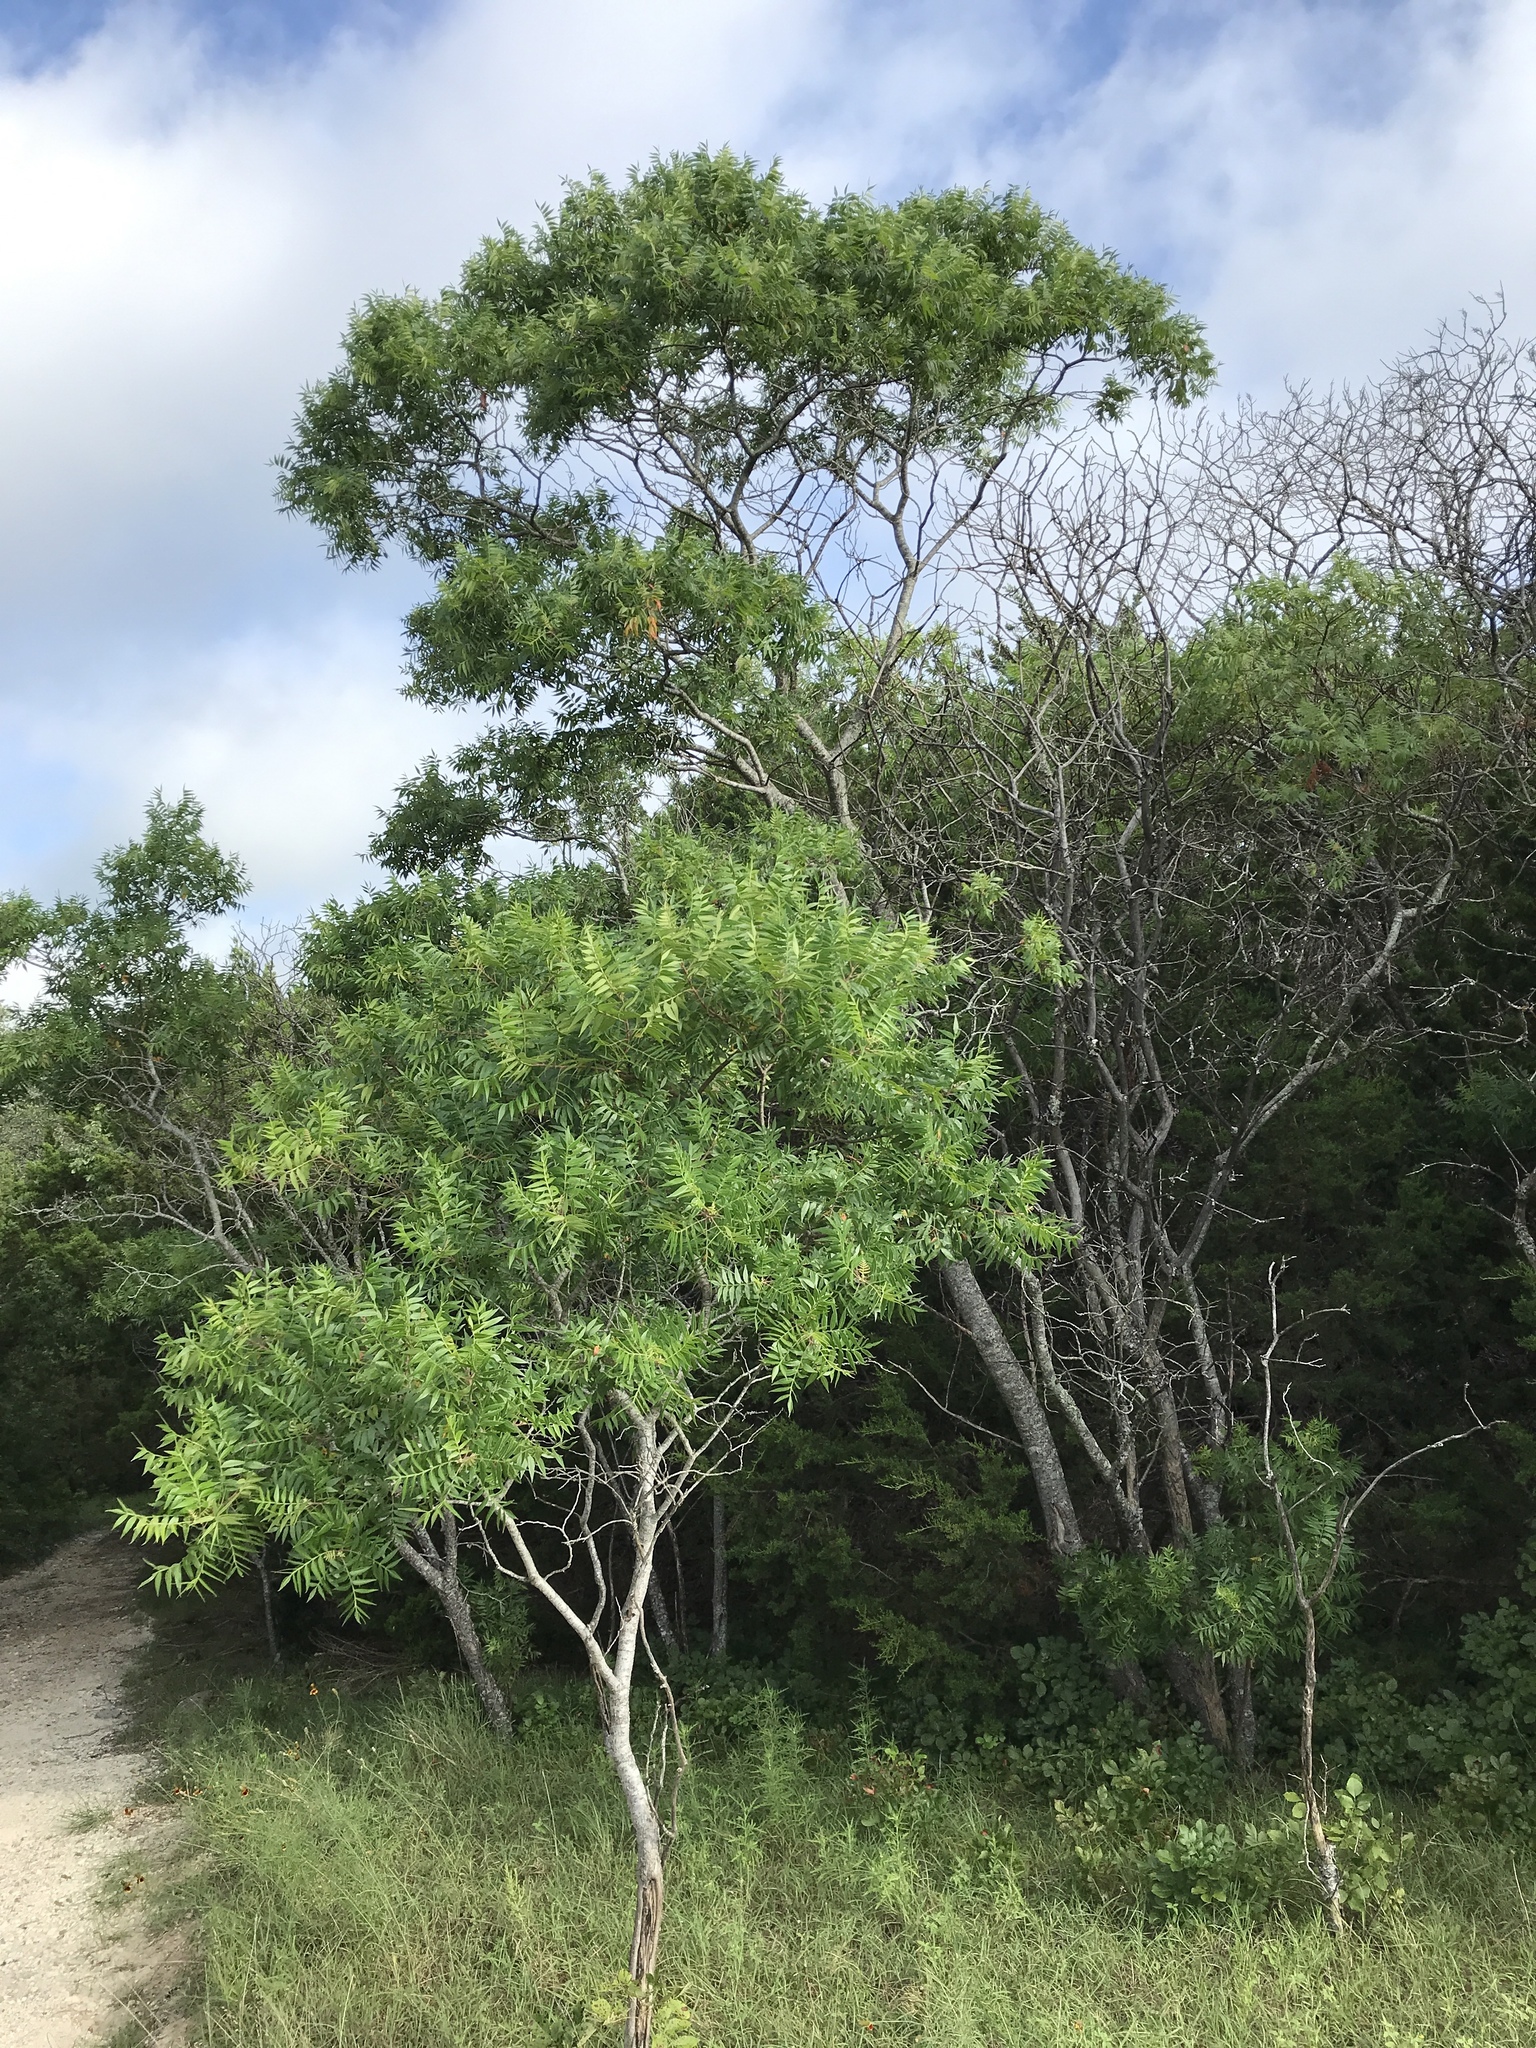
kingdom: Plantae
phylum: Tracheophyta
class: Magnoliopsida
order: Sapindales
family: Anacardiaceae
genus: Rhus
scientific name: Rhus lanceolata
